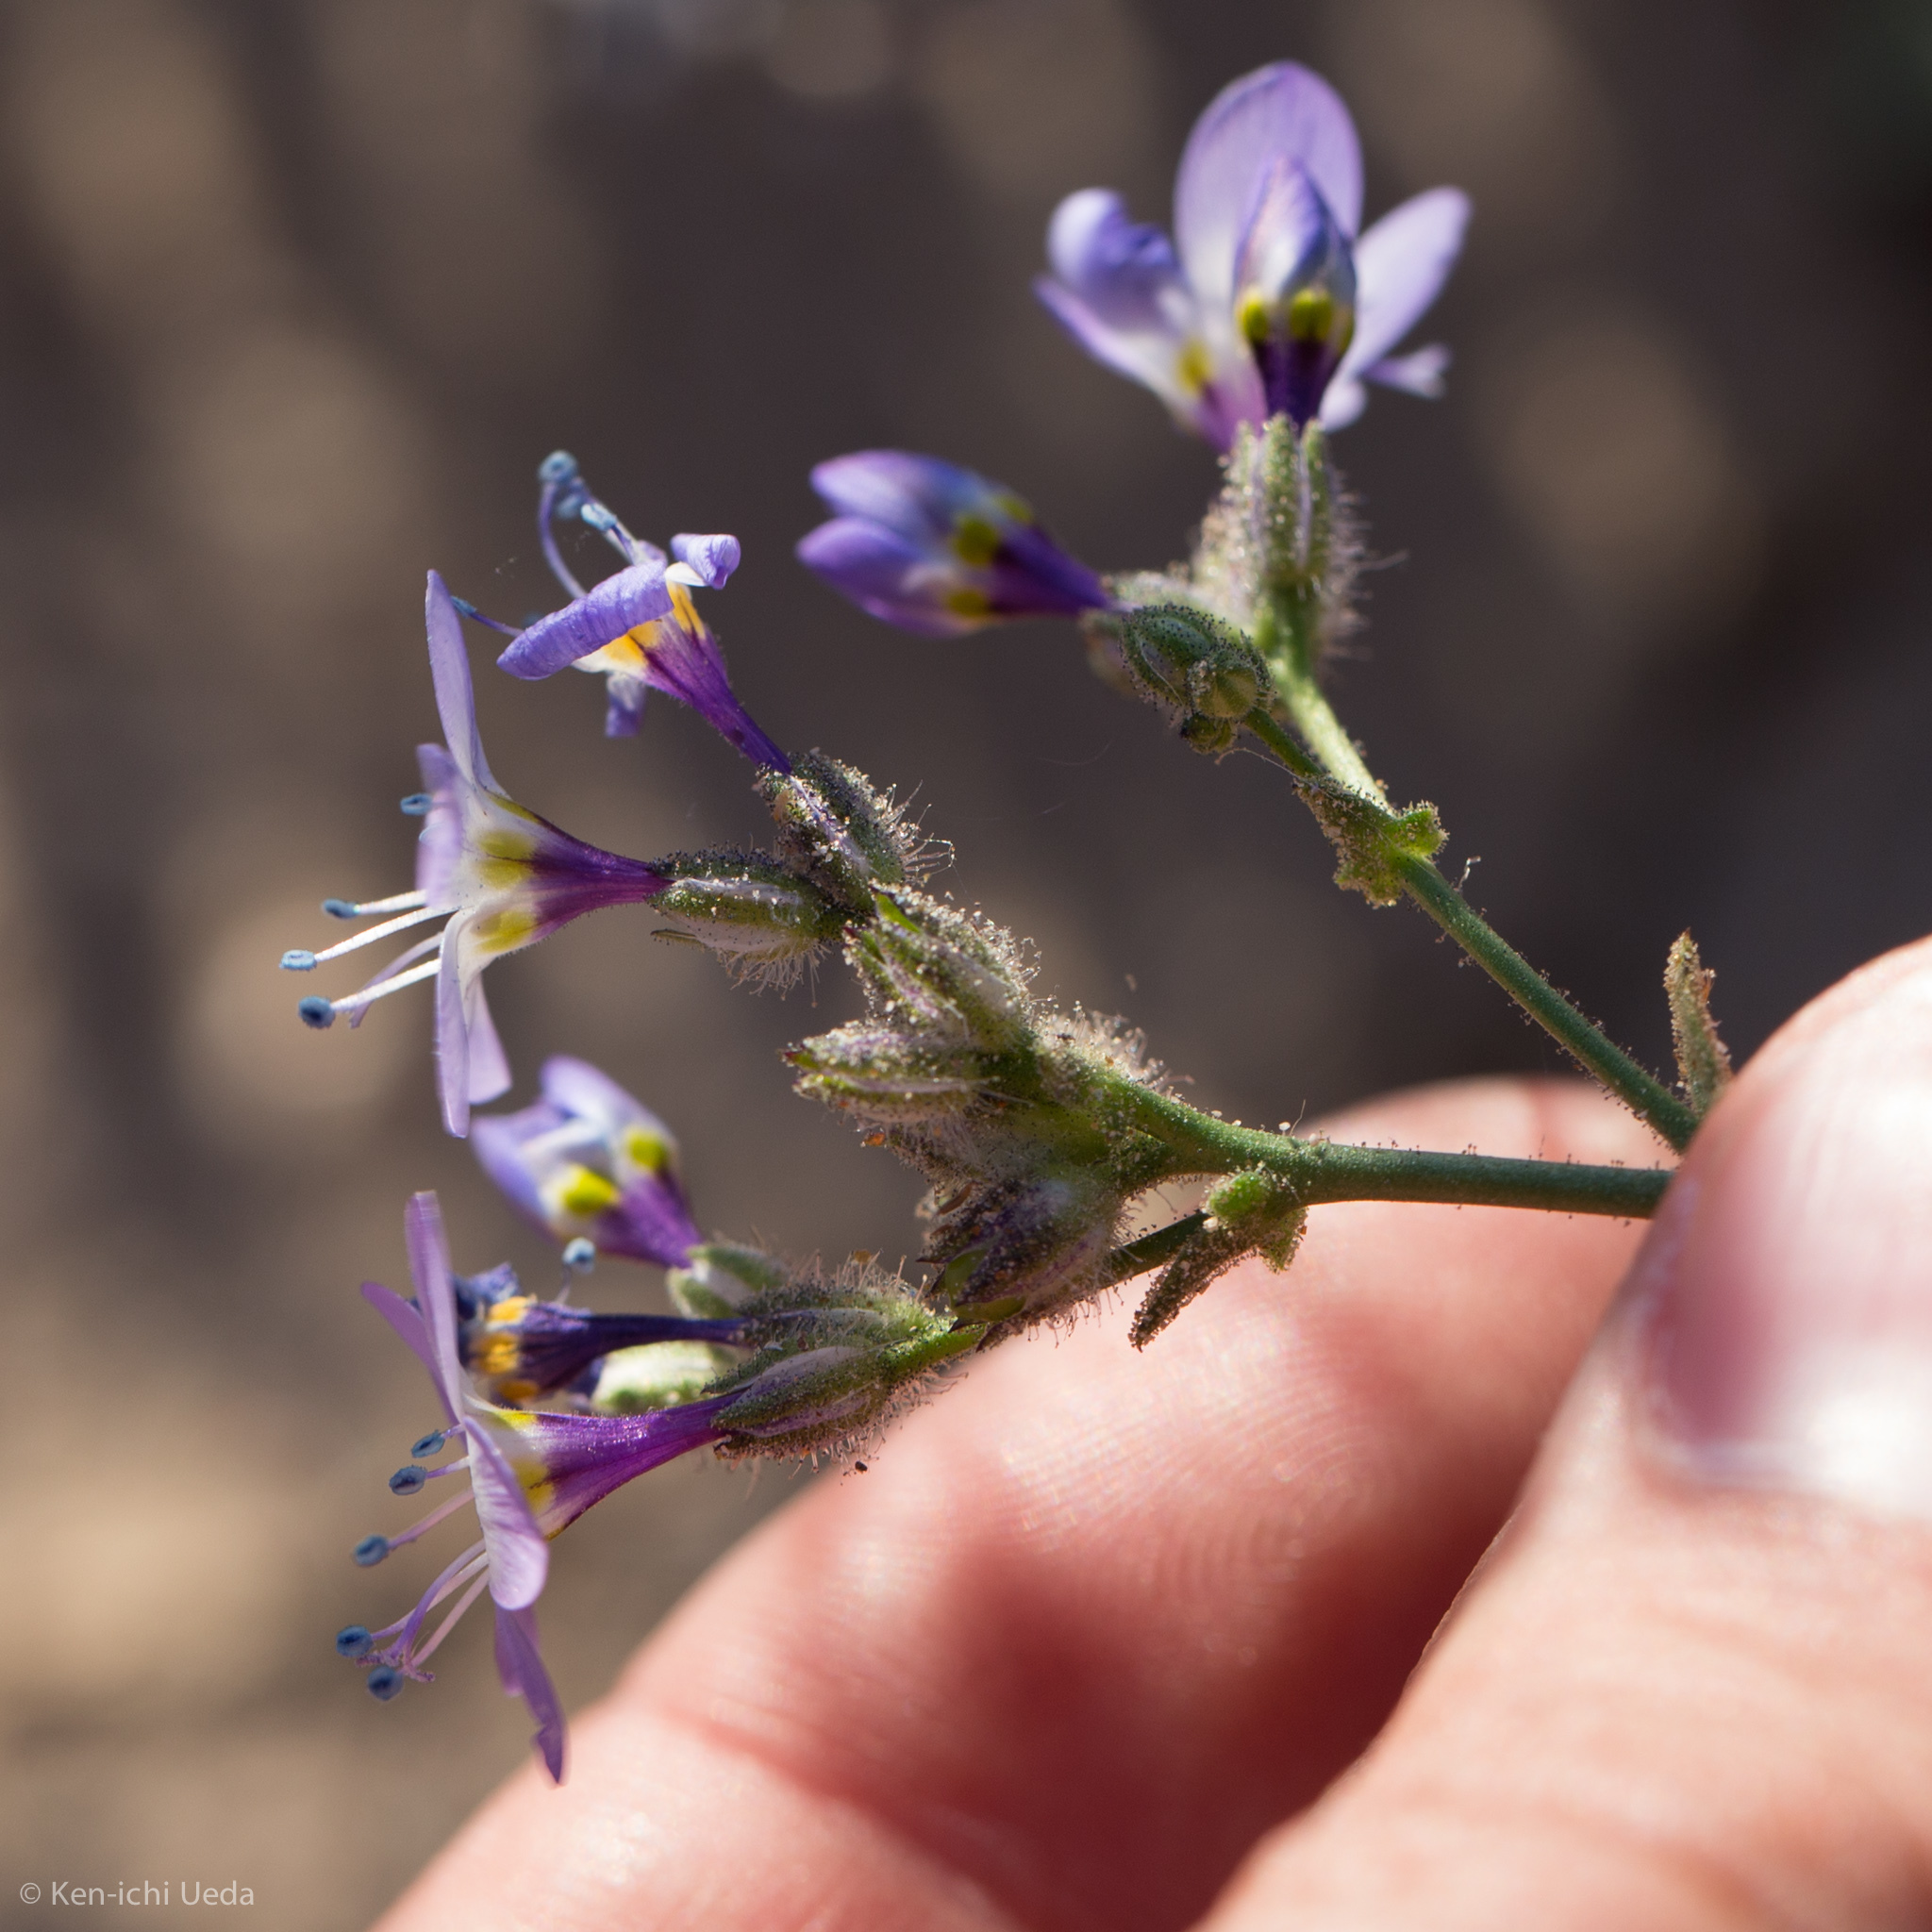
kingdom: Plantae
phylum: Tracheophyta
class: Magnoliopsida
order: Ericales
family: Polemoniaceae
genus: Gilia
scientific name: Gilia brecciarum
